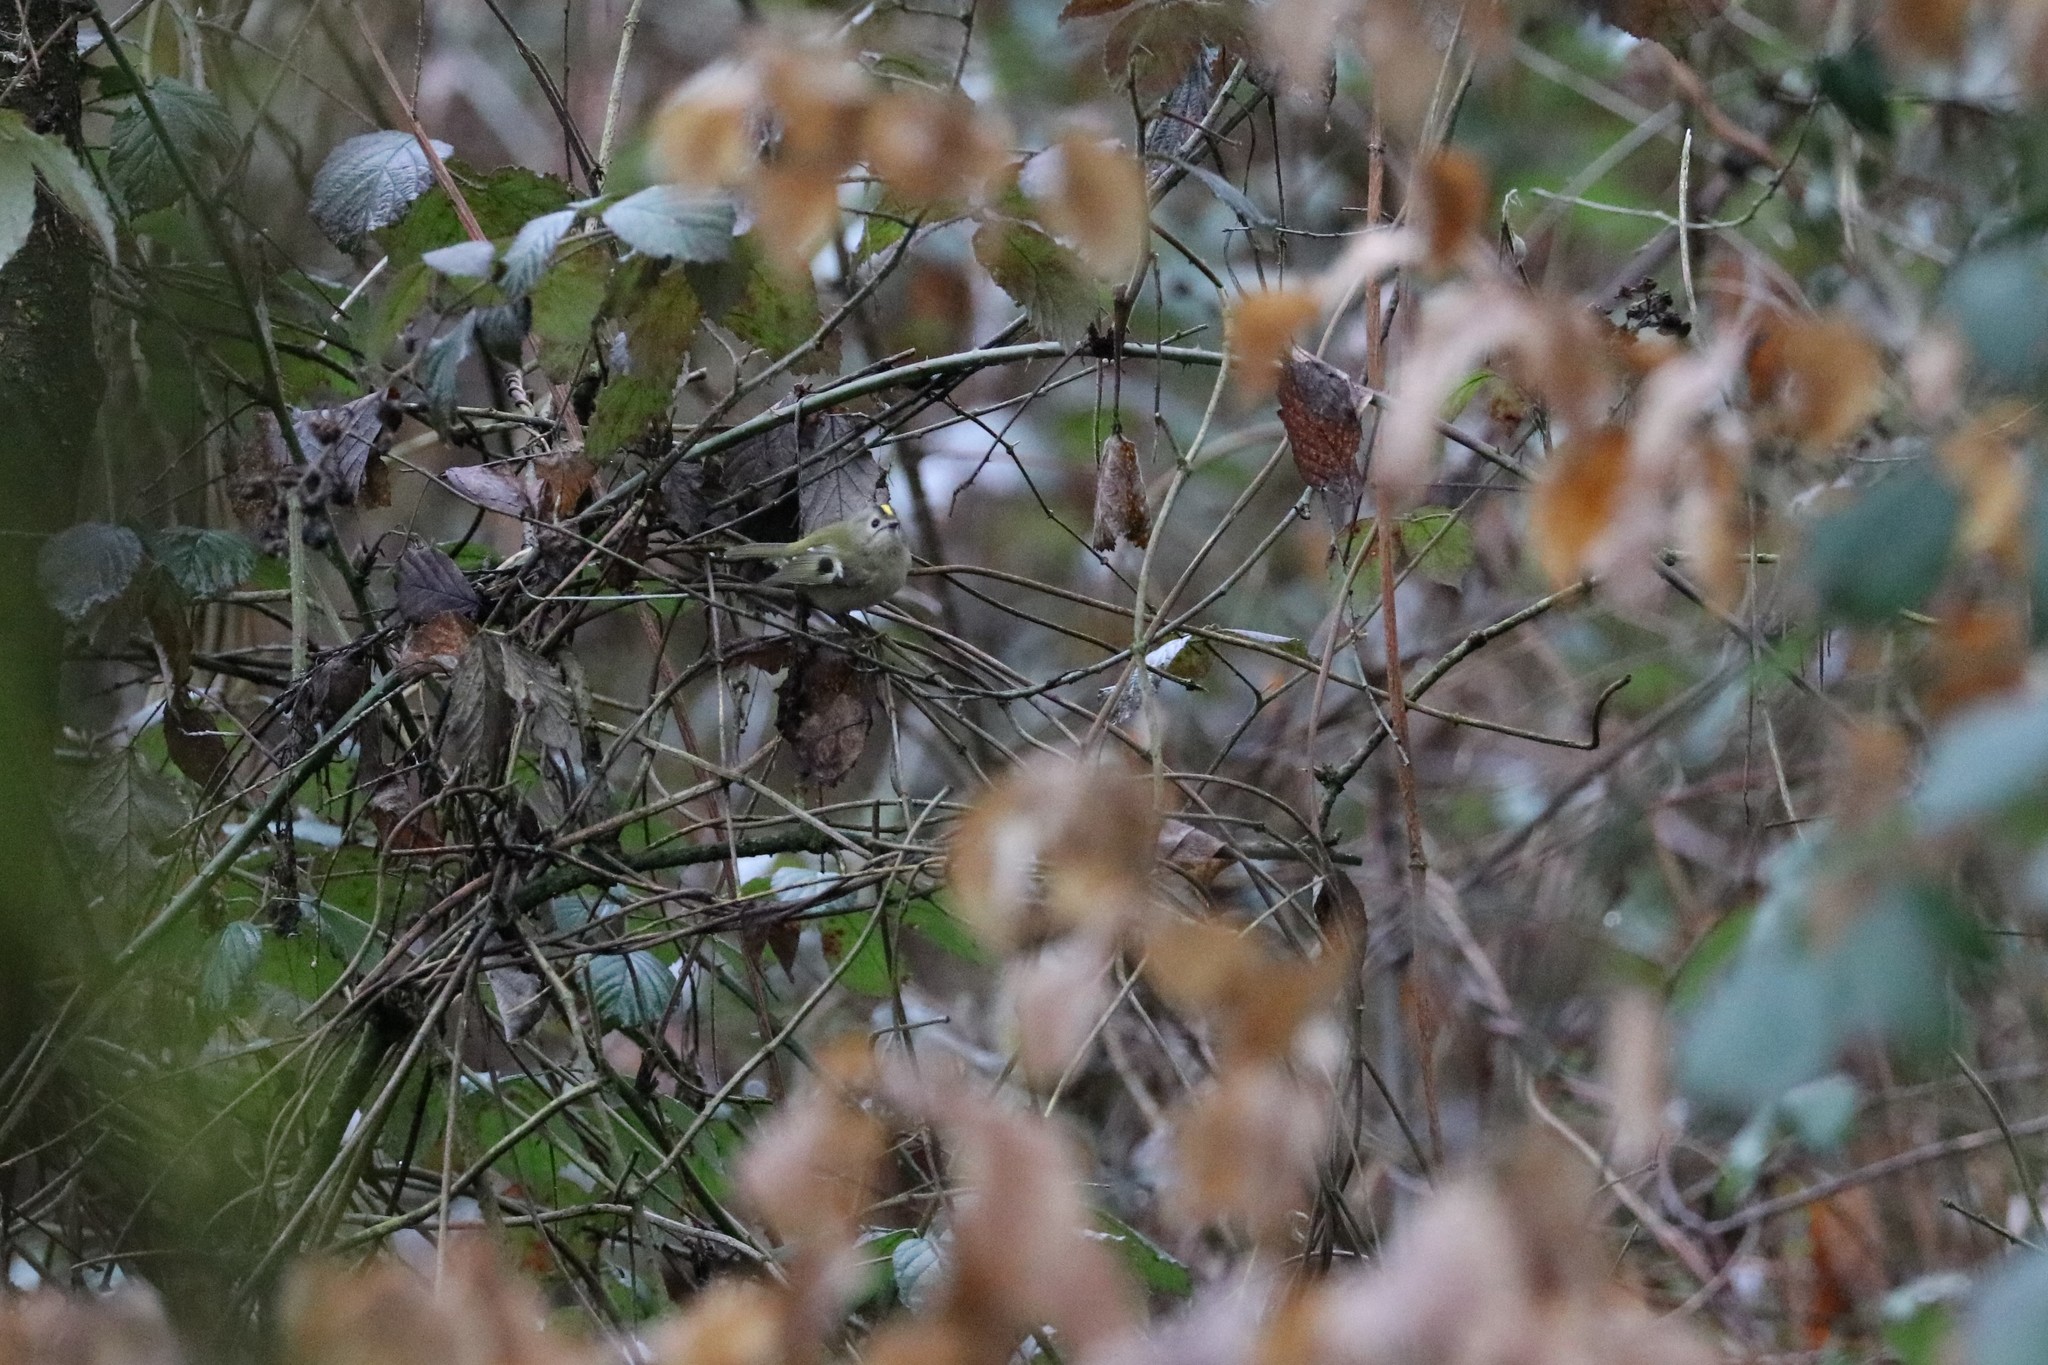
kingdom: Animalia
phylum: Chordata
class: Aves
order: Passeriformes
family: Regulidae
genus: Regulus
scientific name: Regulus regulus
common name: Goldcrest
